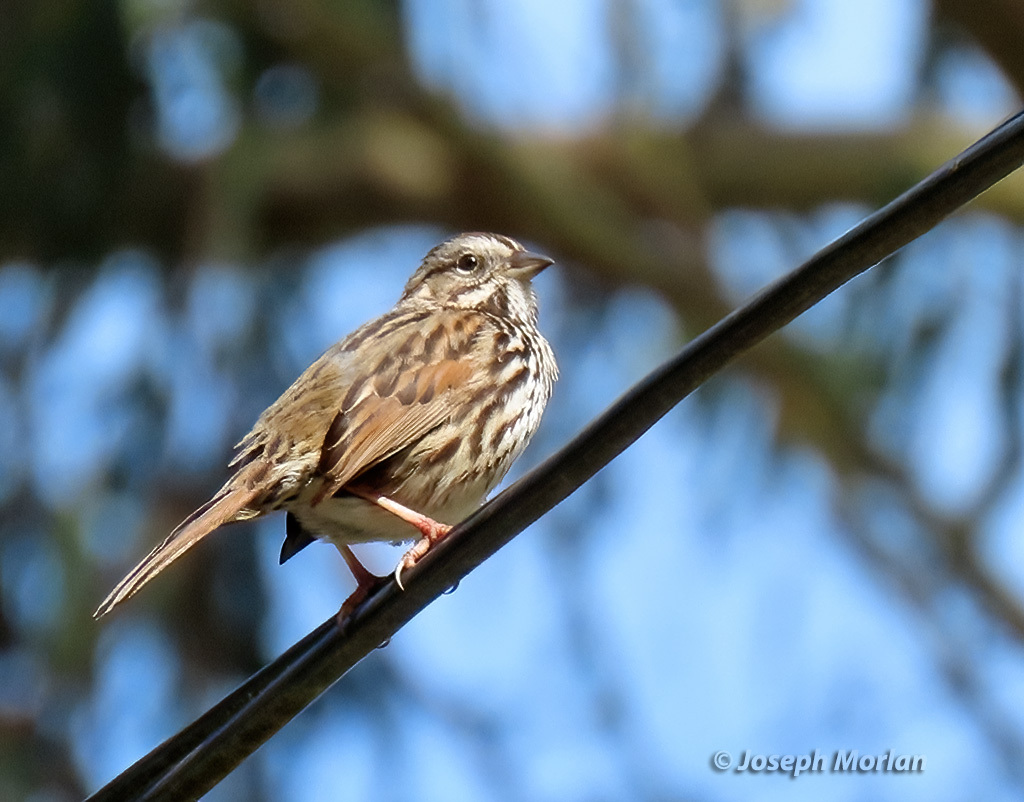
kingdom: Animalia
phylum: Chordata
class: Aves
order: Passeriformes
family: Passerellidae
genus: Melospiza
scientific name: Melospiza melodia
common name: Song sparrow
